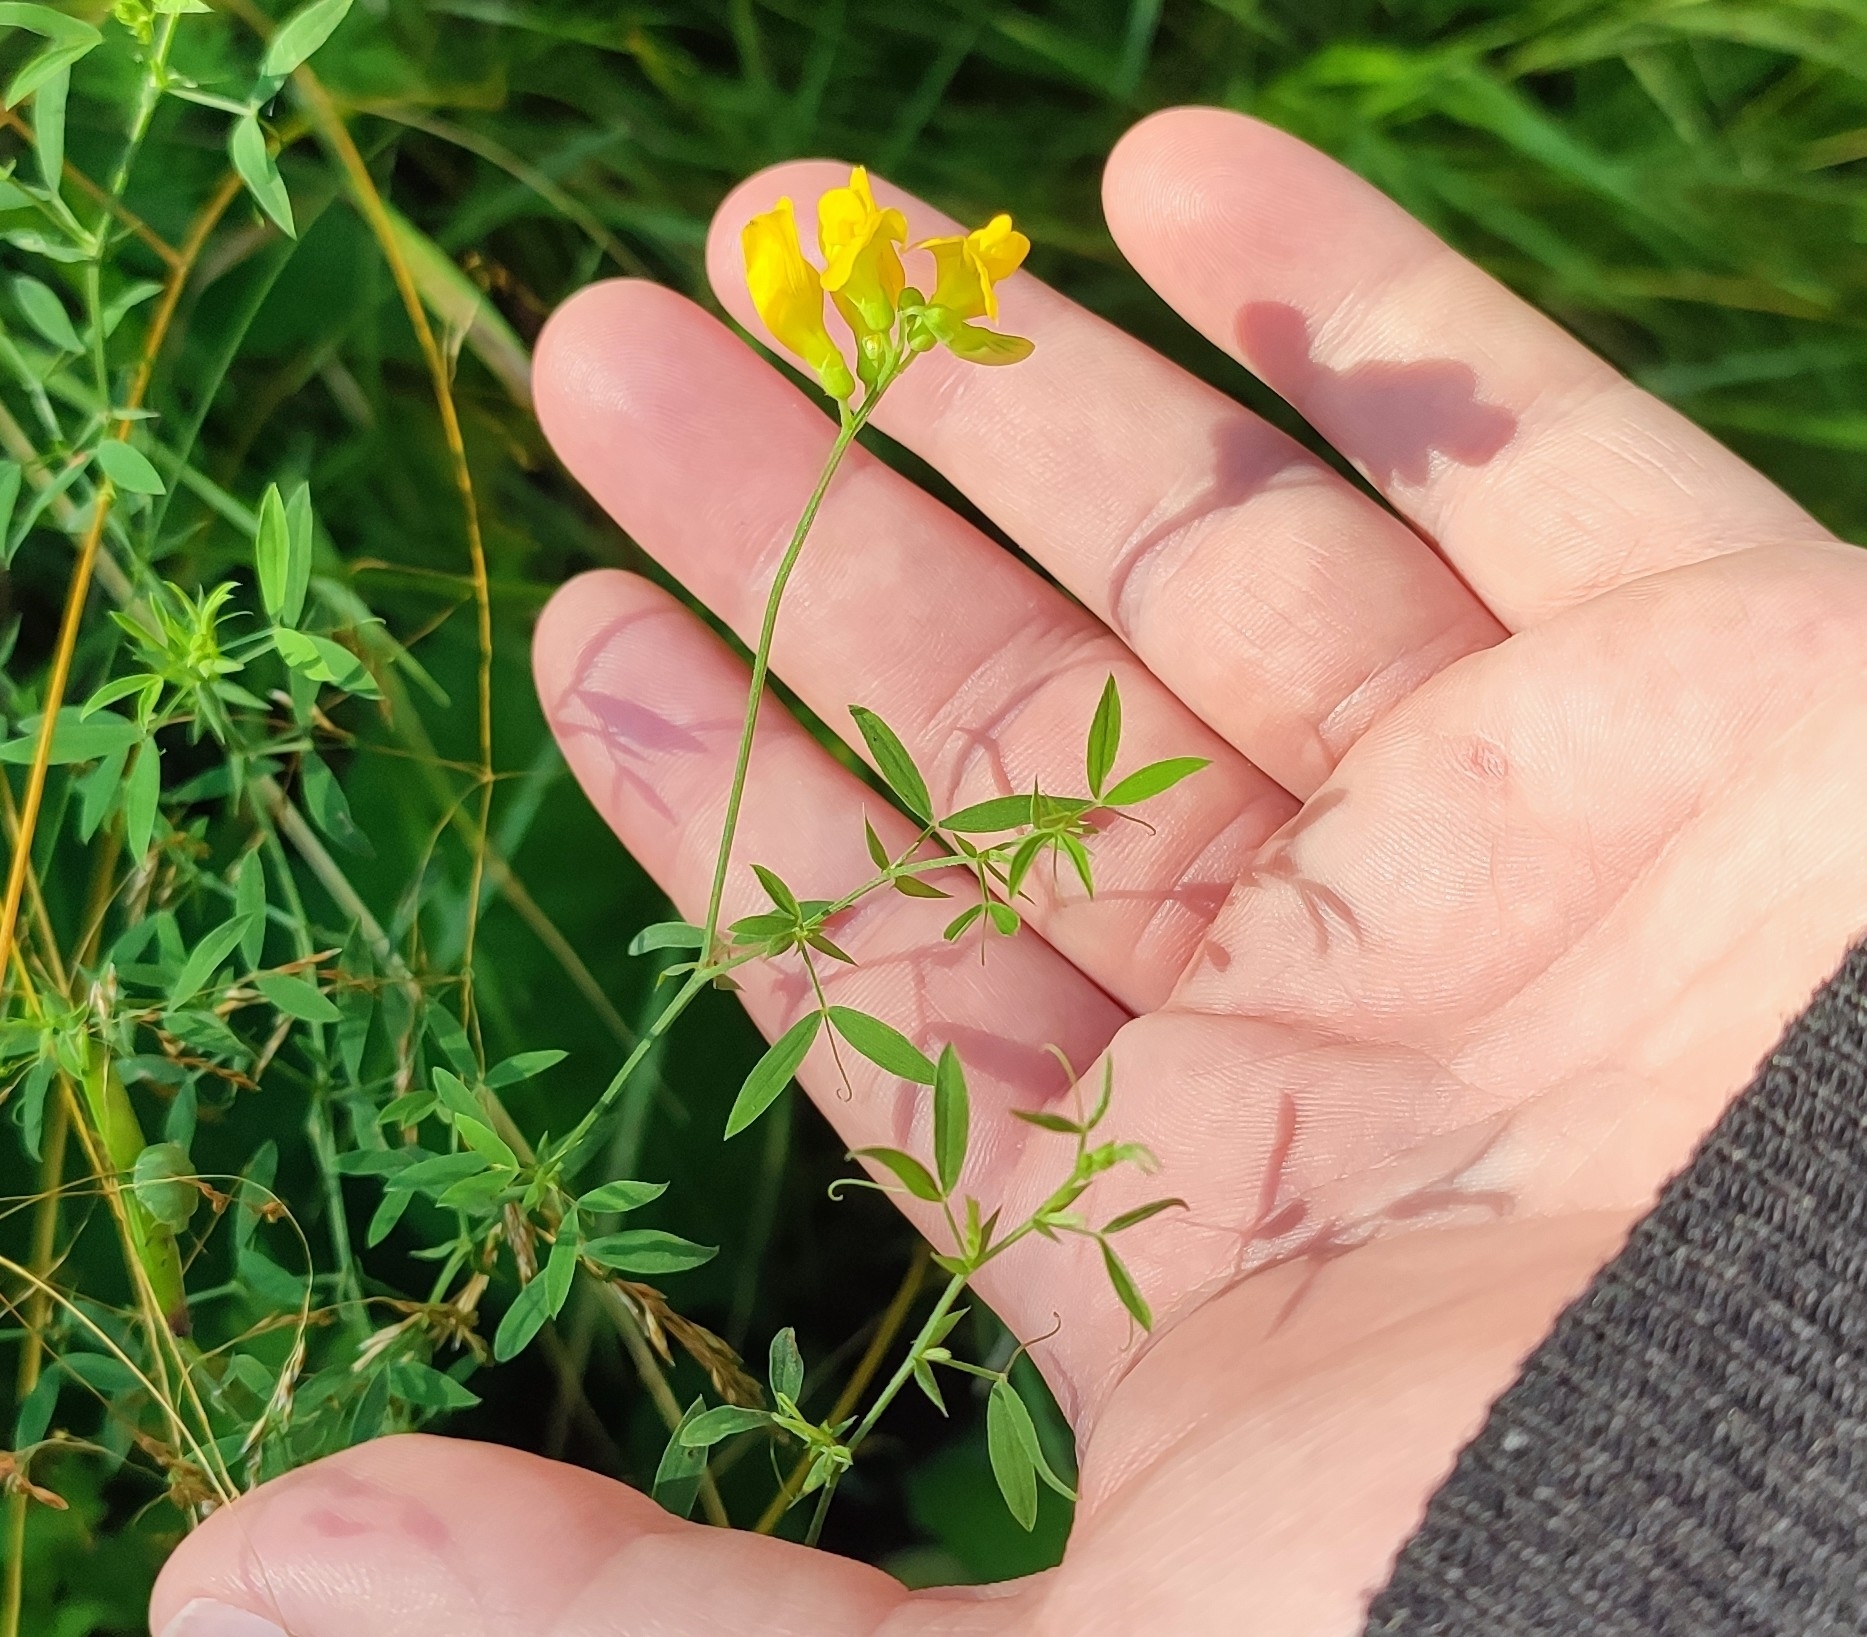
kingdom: Plantae
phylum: Tracheophyta
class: Magnoliopsida
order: Fabales
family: Fabaceae
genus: Lathyrus
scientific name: Lathyrus pratensis
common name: Meadow vetchling
